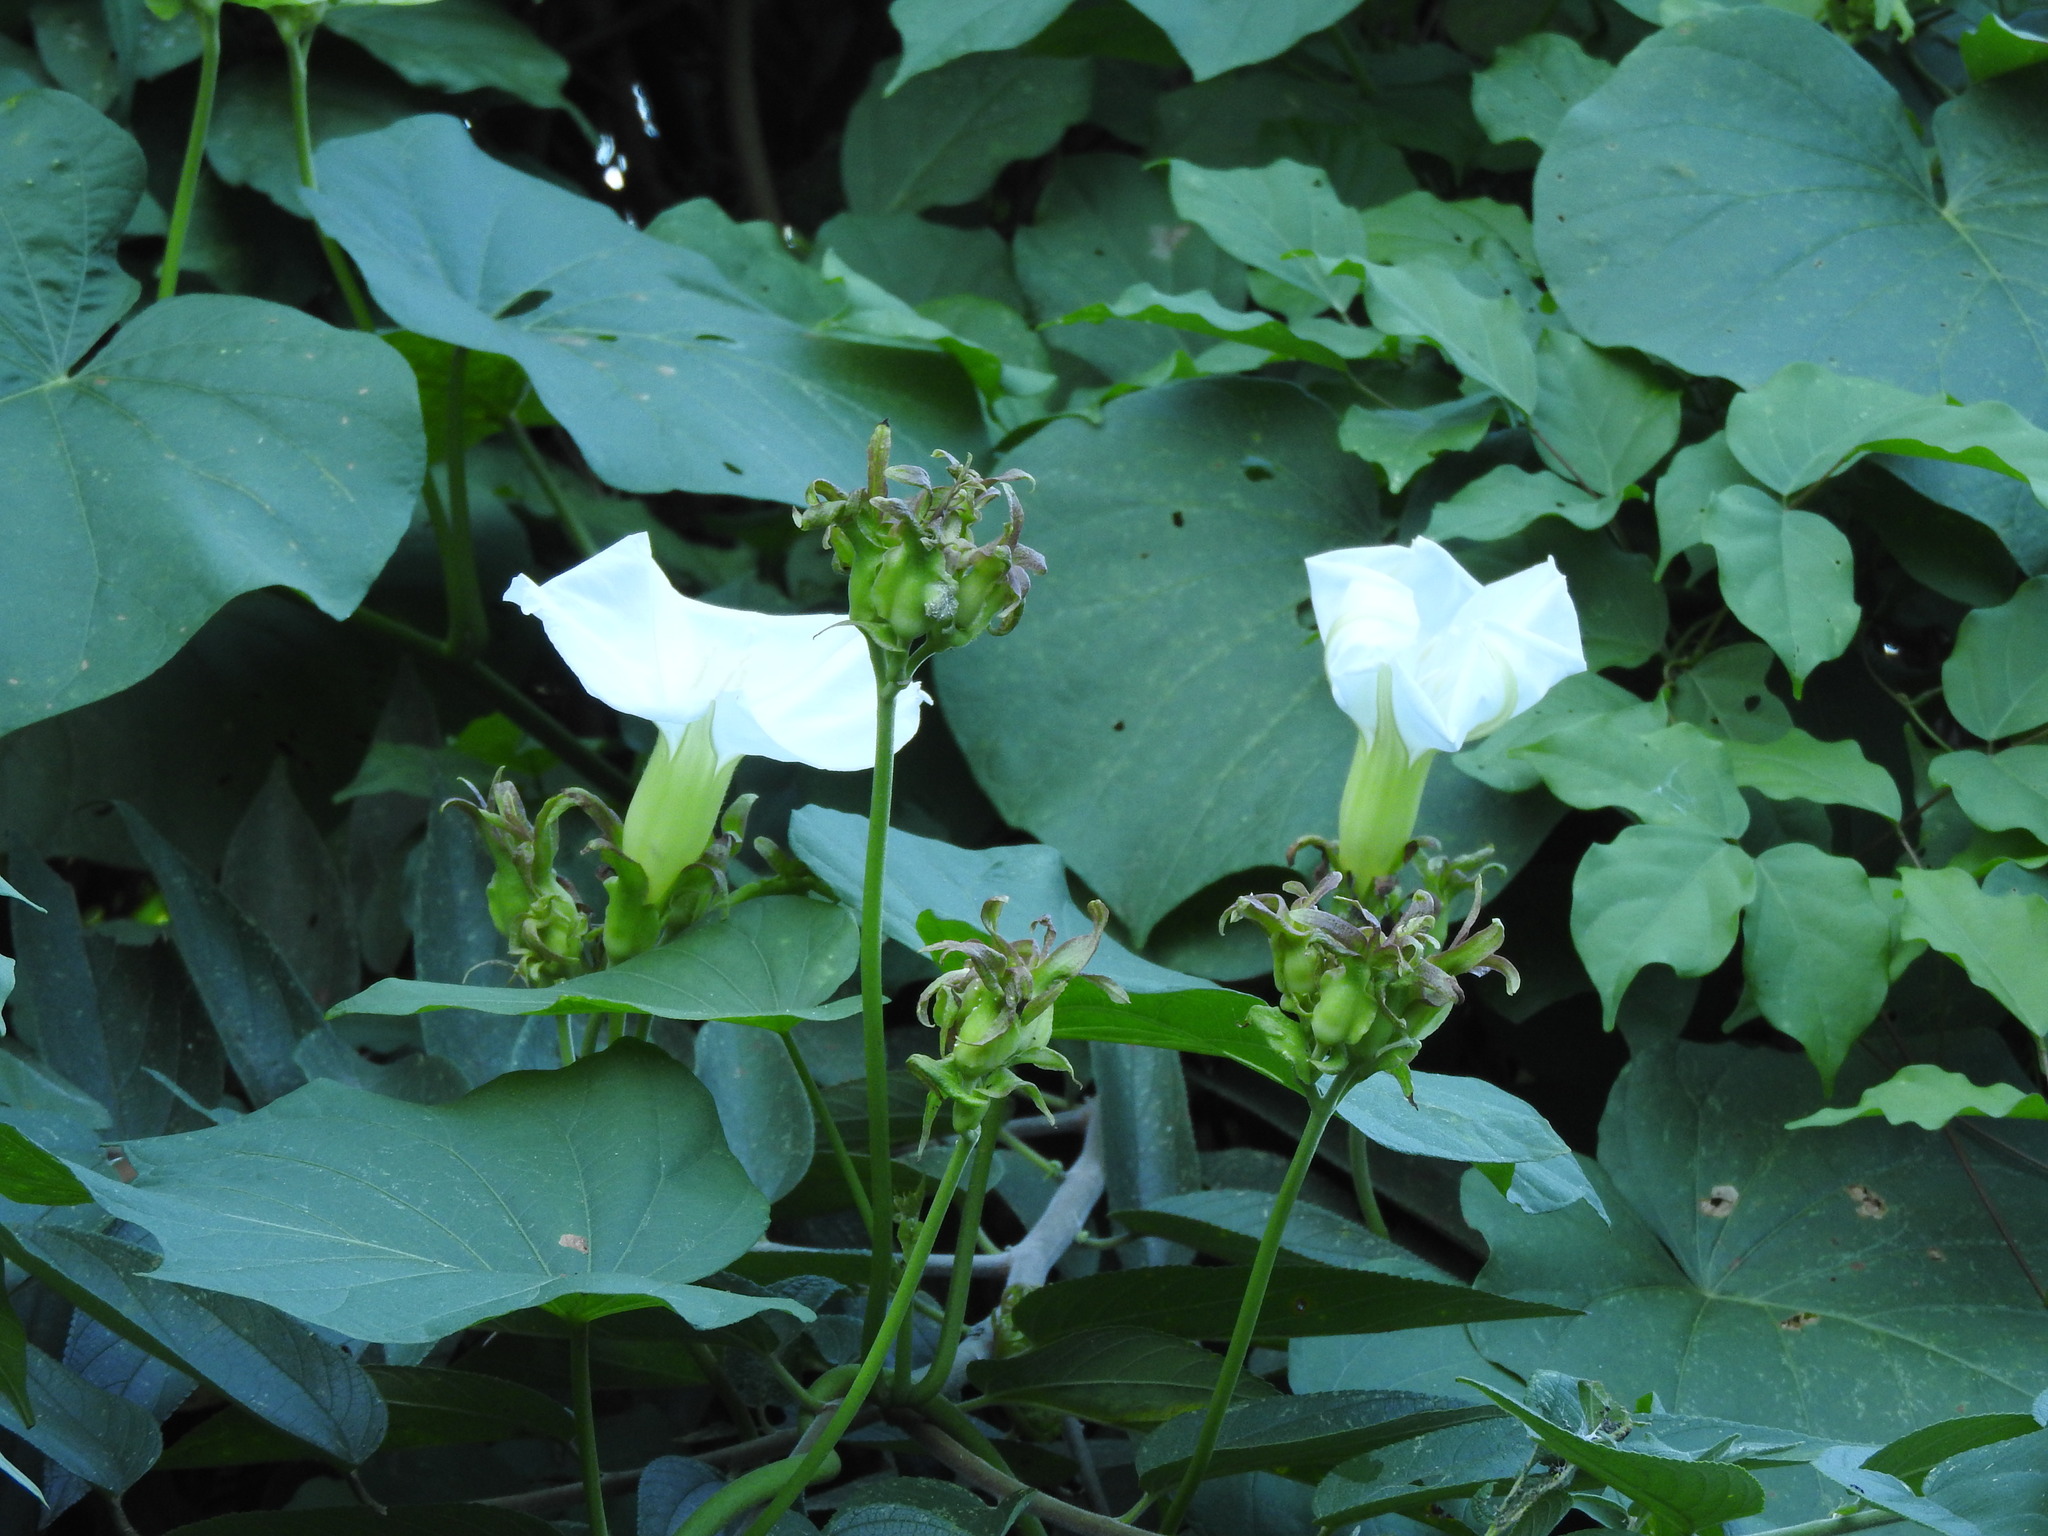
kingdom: Plantae
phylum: Tracheophyta
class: Magnoliopsida
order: Solanales
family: Convolvulaceae
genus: Ipomoea
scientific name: Ipomoea ampullacea
